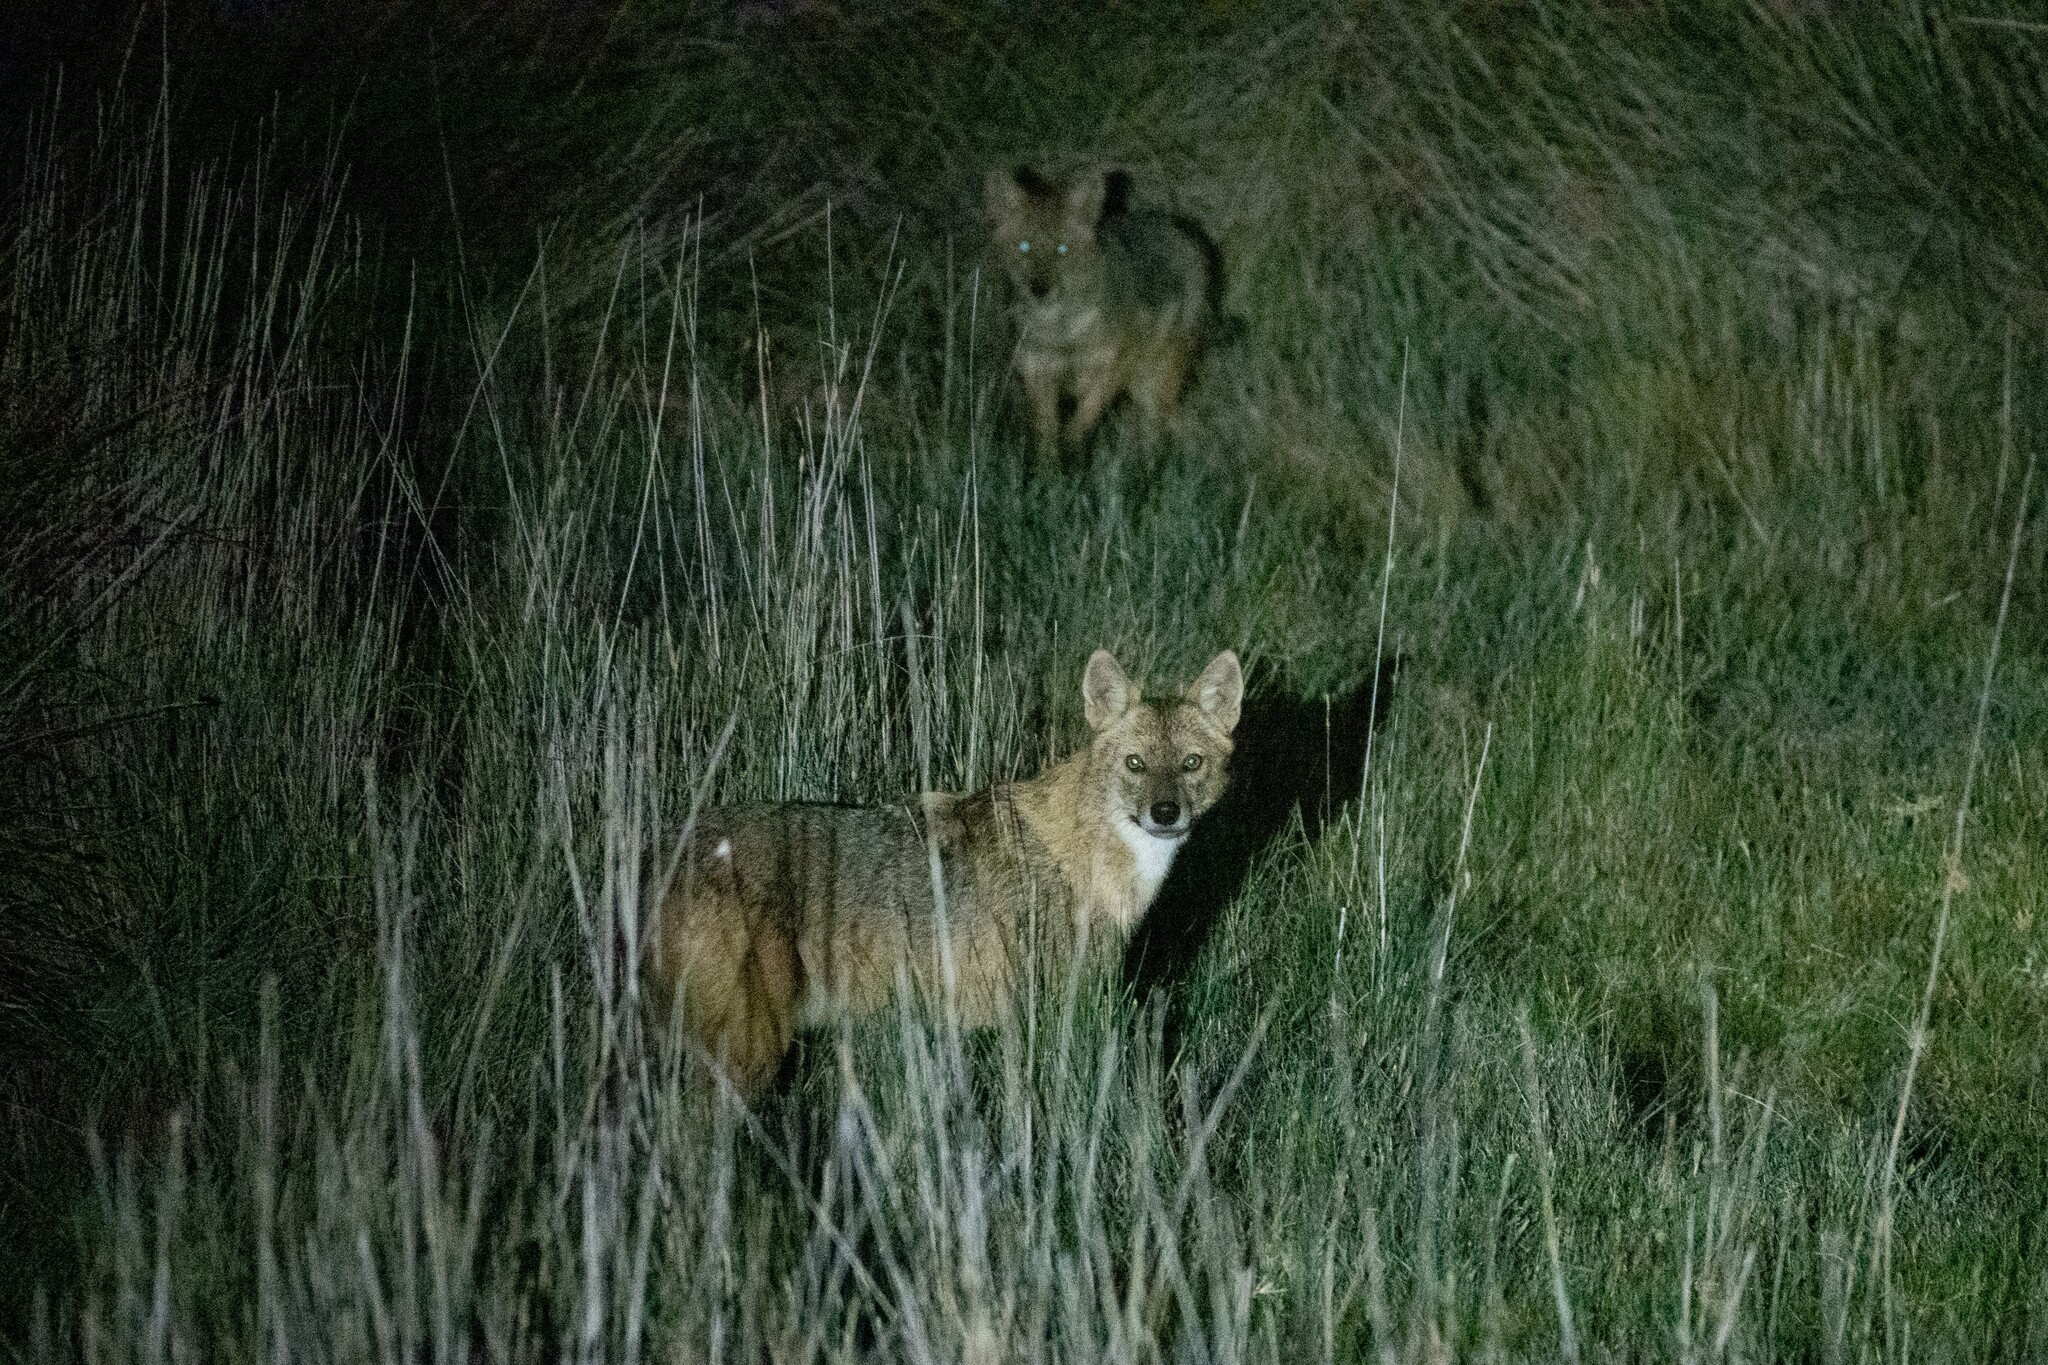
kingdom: Animalia
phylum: Chordata
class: Mammalia
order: Carnivora
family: Canidae
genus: Canis
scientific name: Canis aureus
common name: Golden jackal
